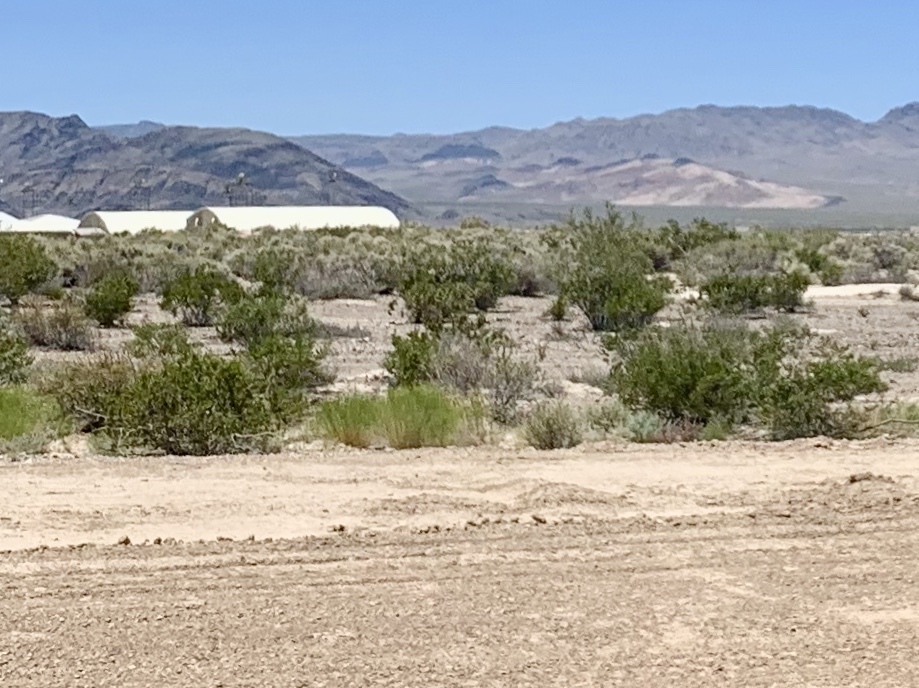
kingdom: Plantae
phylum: Tracheophyta
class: Magnoliopsida
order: Zygophyllales
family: Zygophyllaceae
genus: Larrea
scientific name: Larrea tridentata
